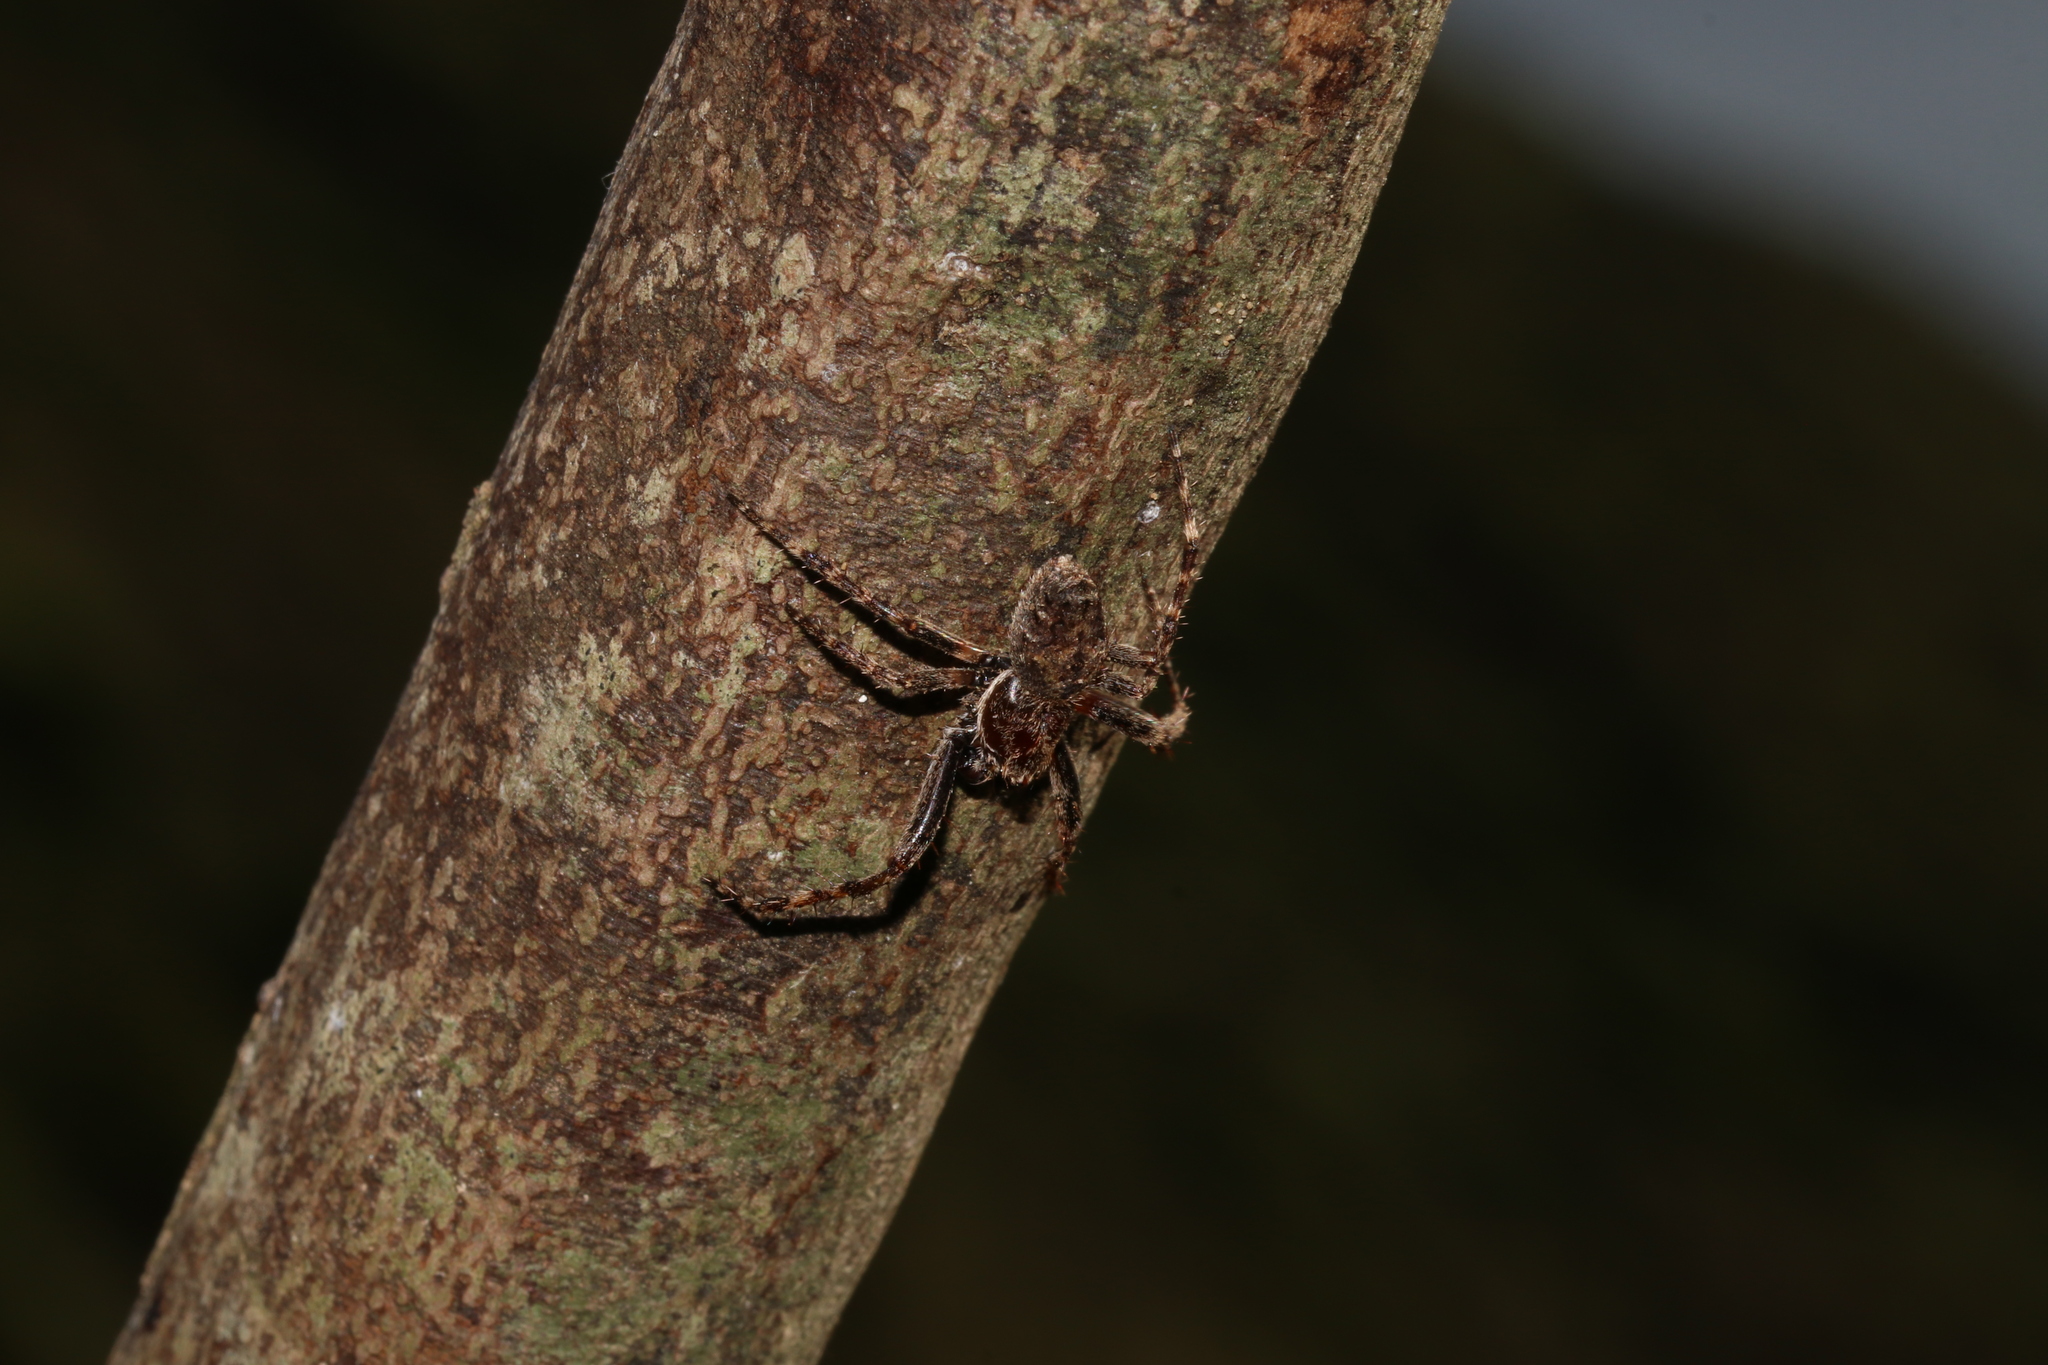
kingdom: Animalia
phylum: Arthropoda
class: Arachnida
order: Araneae
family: Araneidae
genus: Eriophora
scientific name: Eriophora pustulosa
